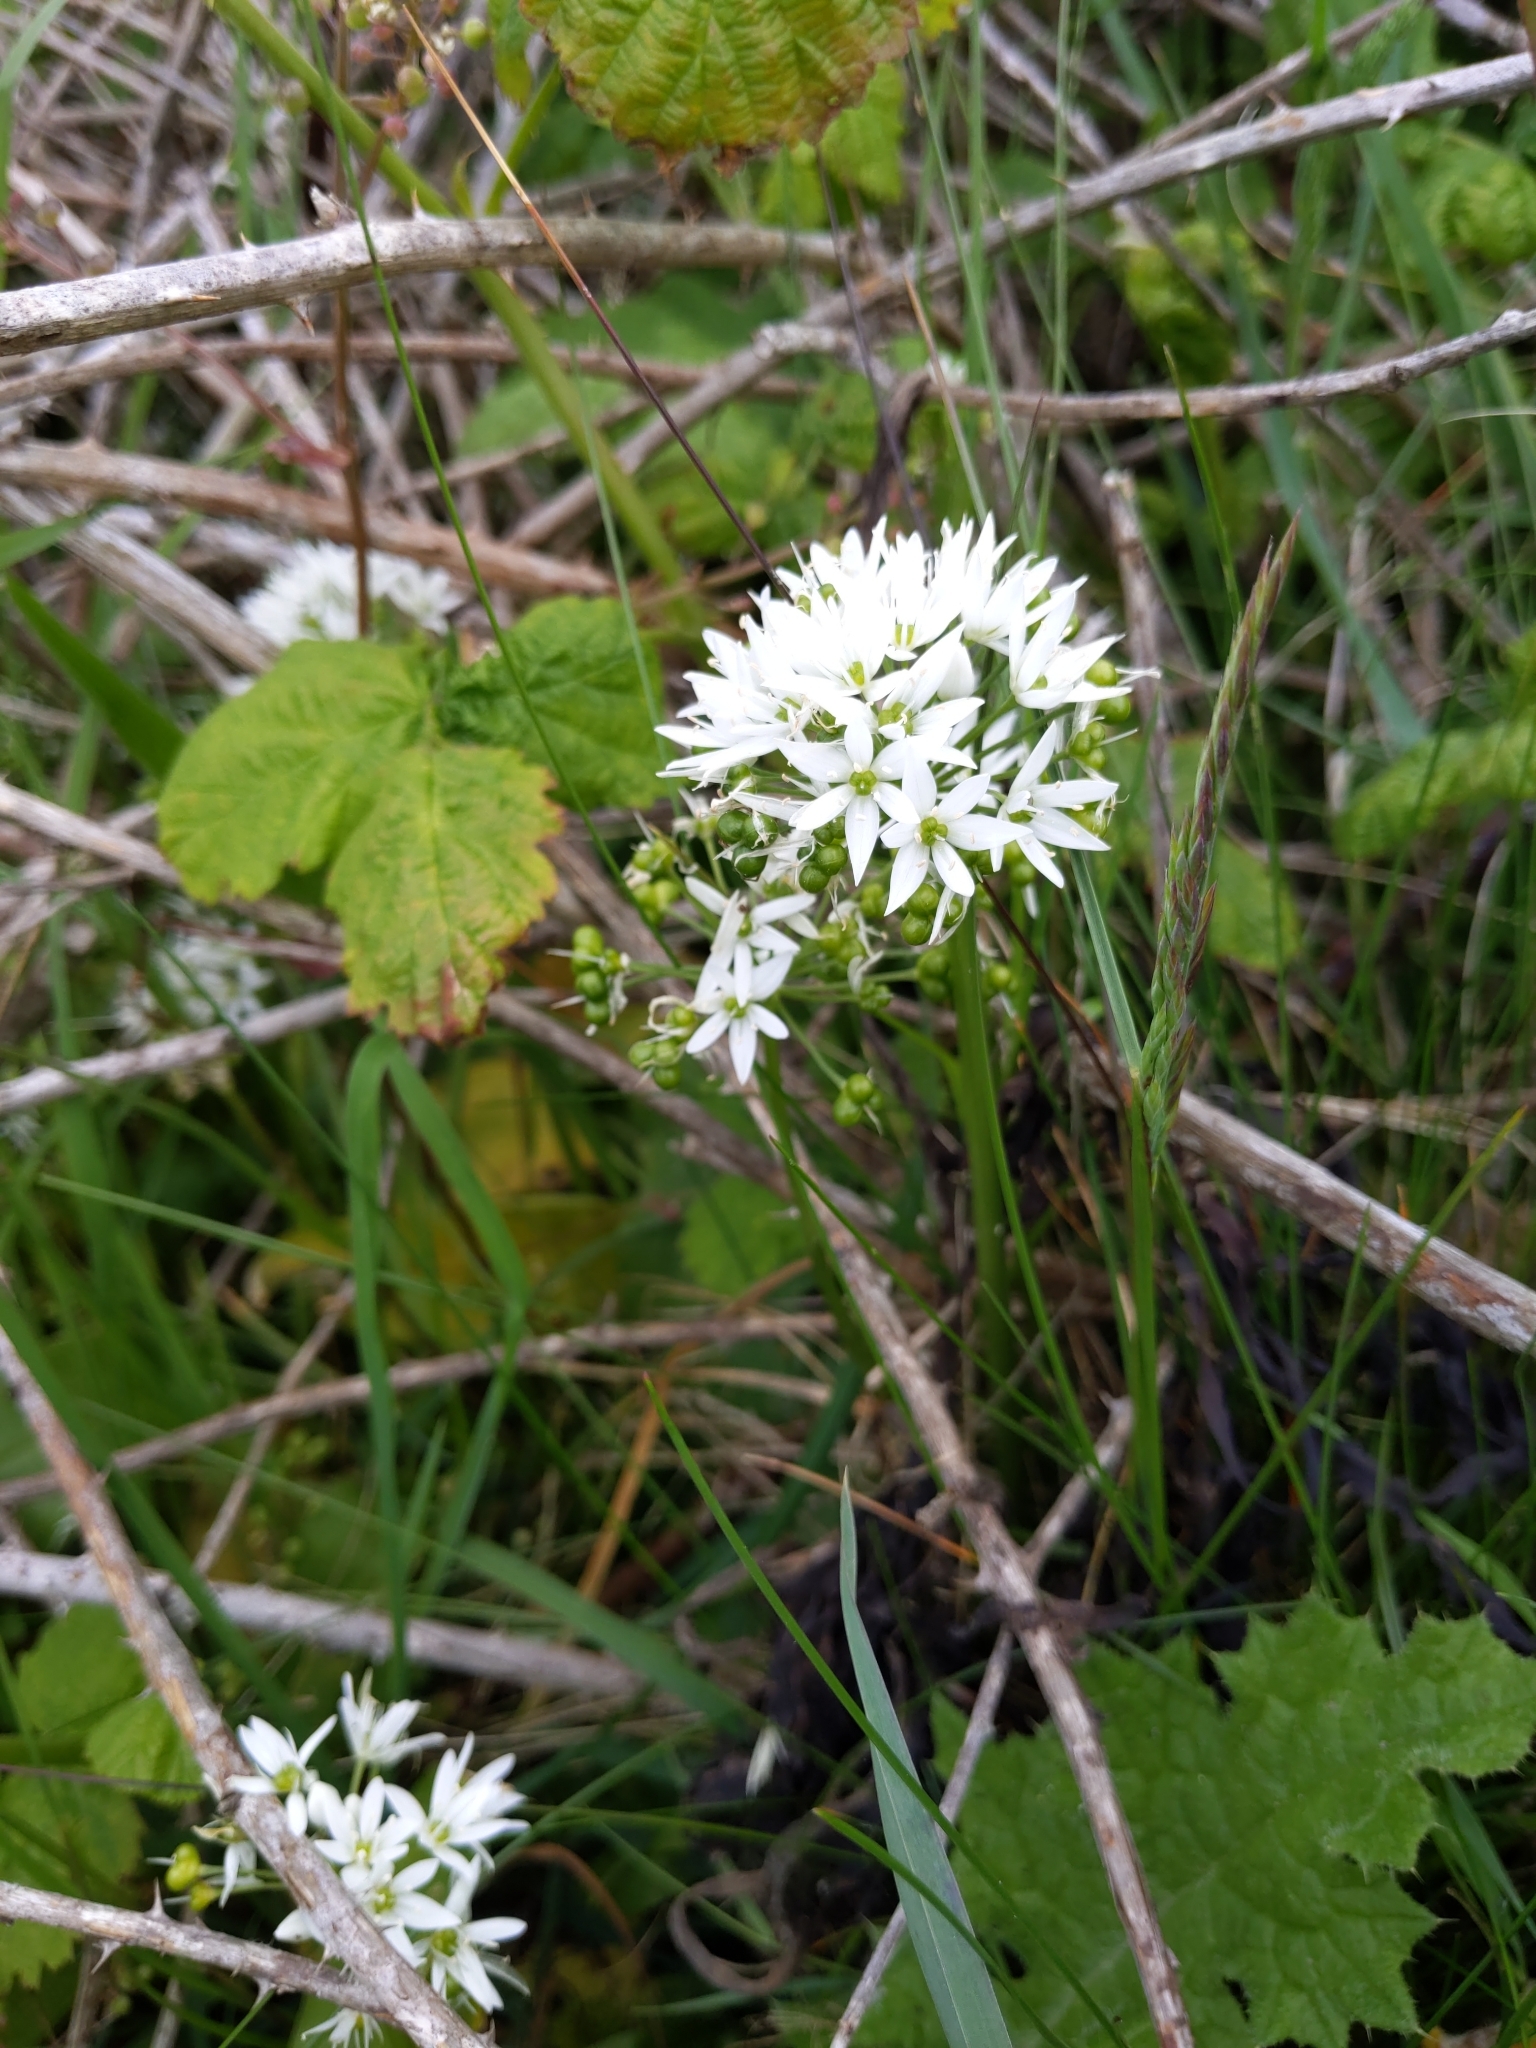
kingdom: Plantae
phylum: Tracheophyta
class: Liliopsida
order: Asparagales
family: Amaryllidaceae
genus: Allium
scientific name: Allium ursinum
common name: Ramsons
